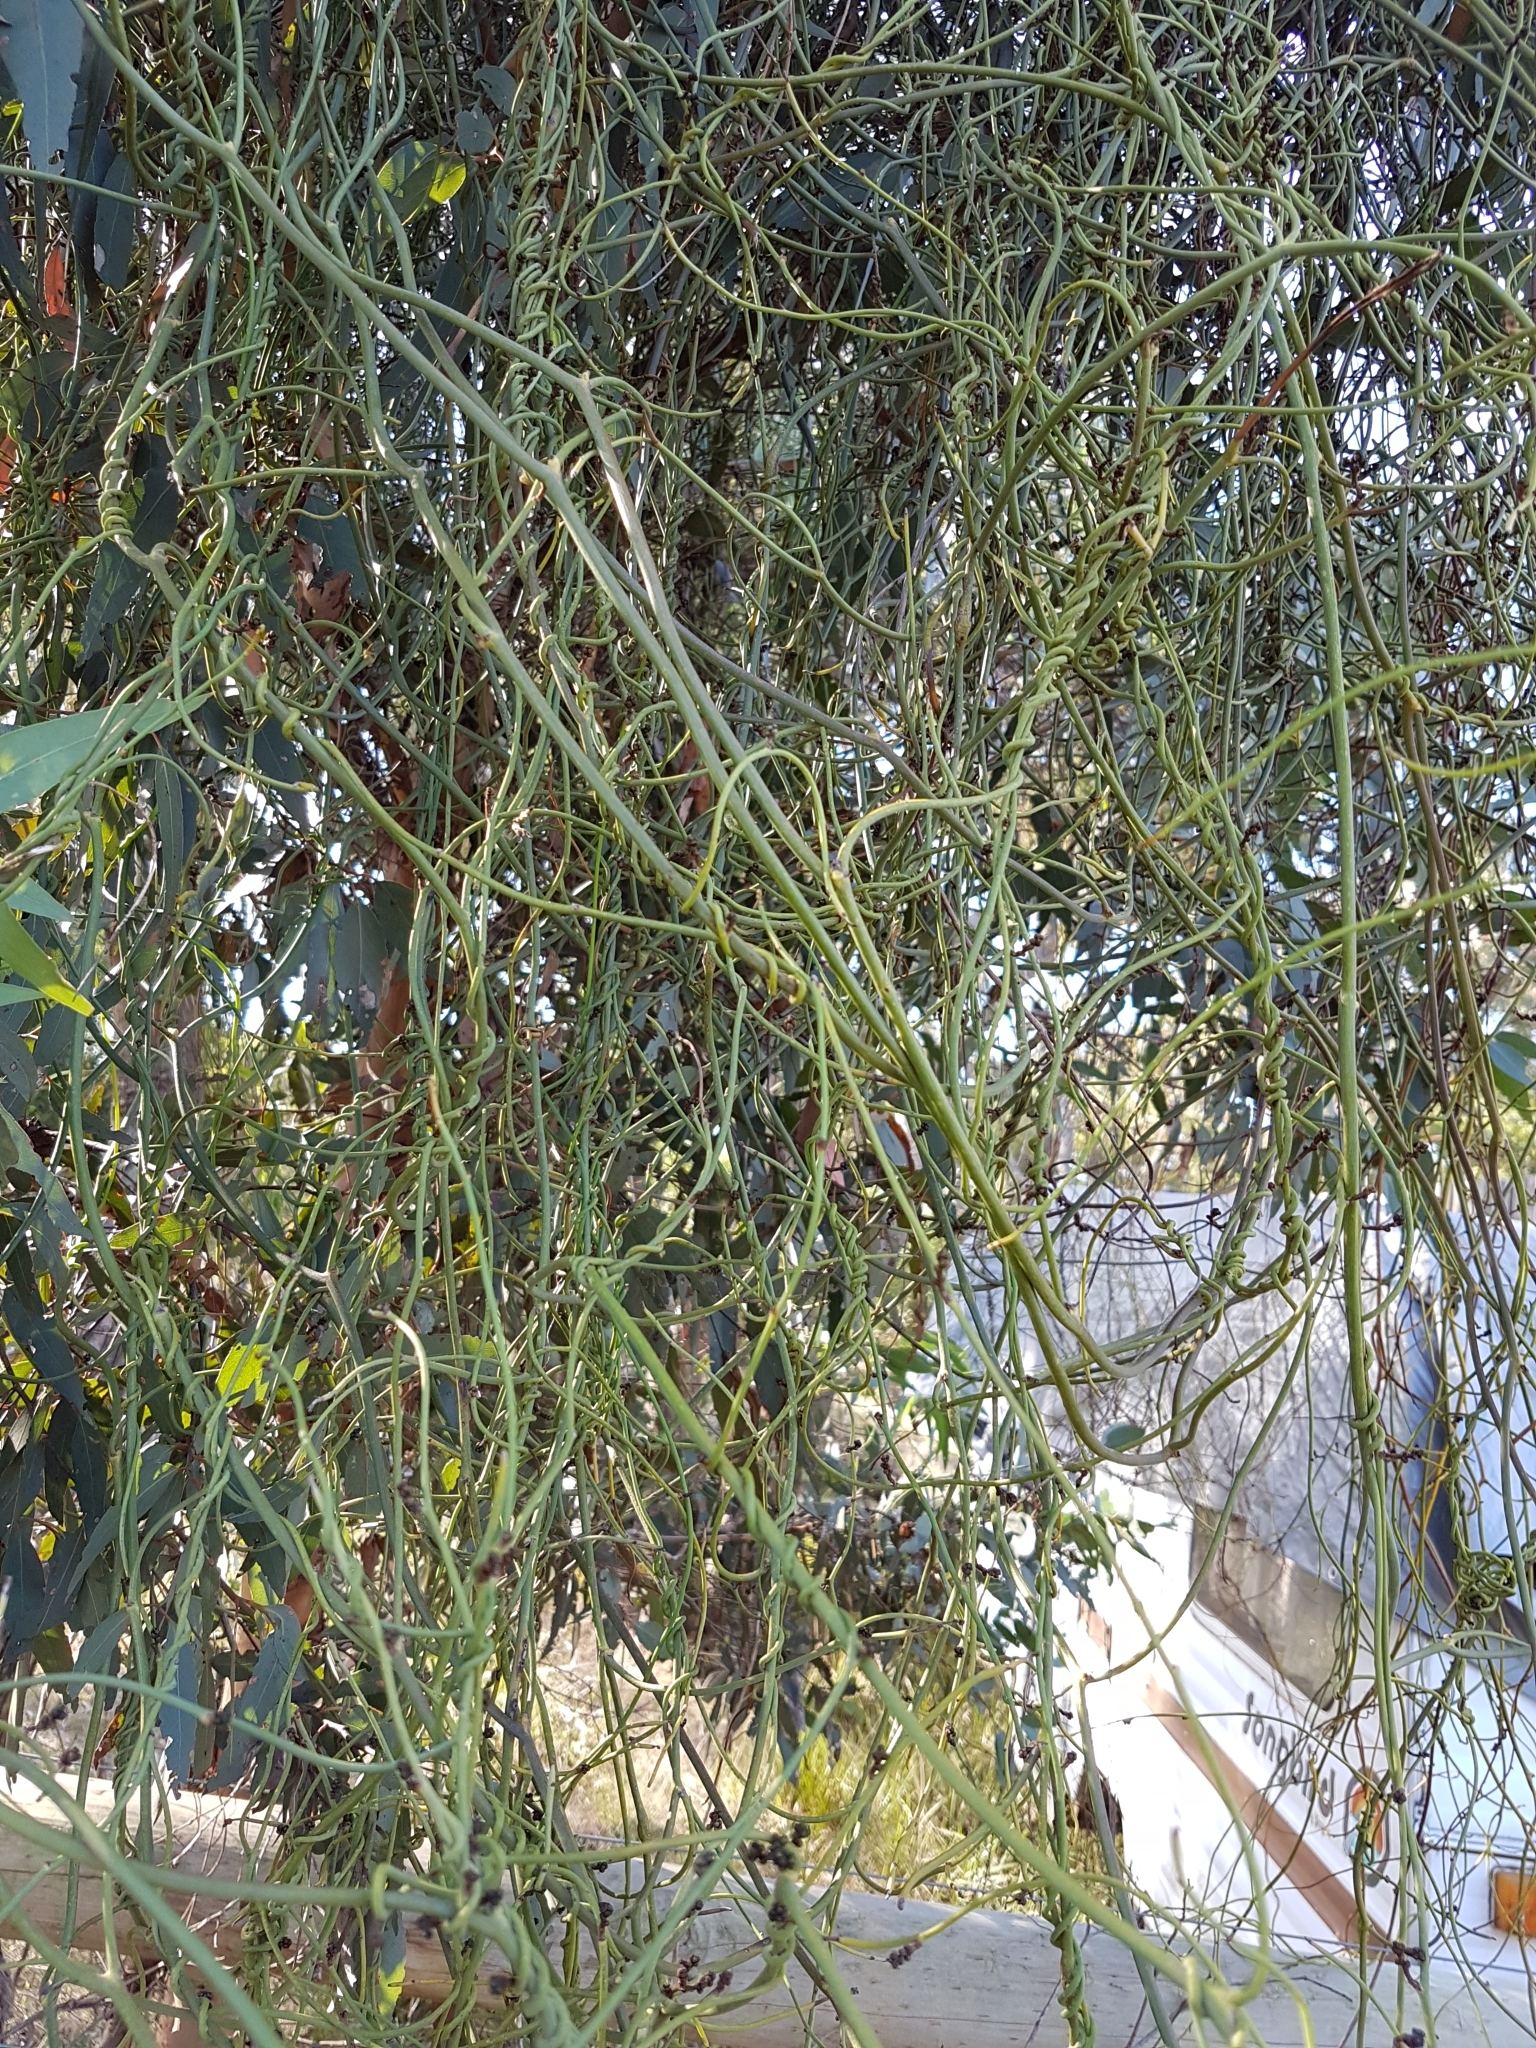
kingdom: Plantae
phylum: Tracheophyta
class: Magnoliopsida
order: Laurales
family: Lauraceae
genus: Cassytha
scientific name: Cassytha melantha
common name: Mallee stranglevine
